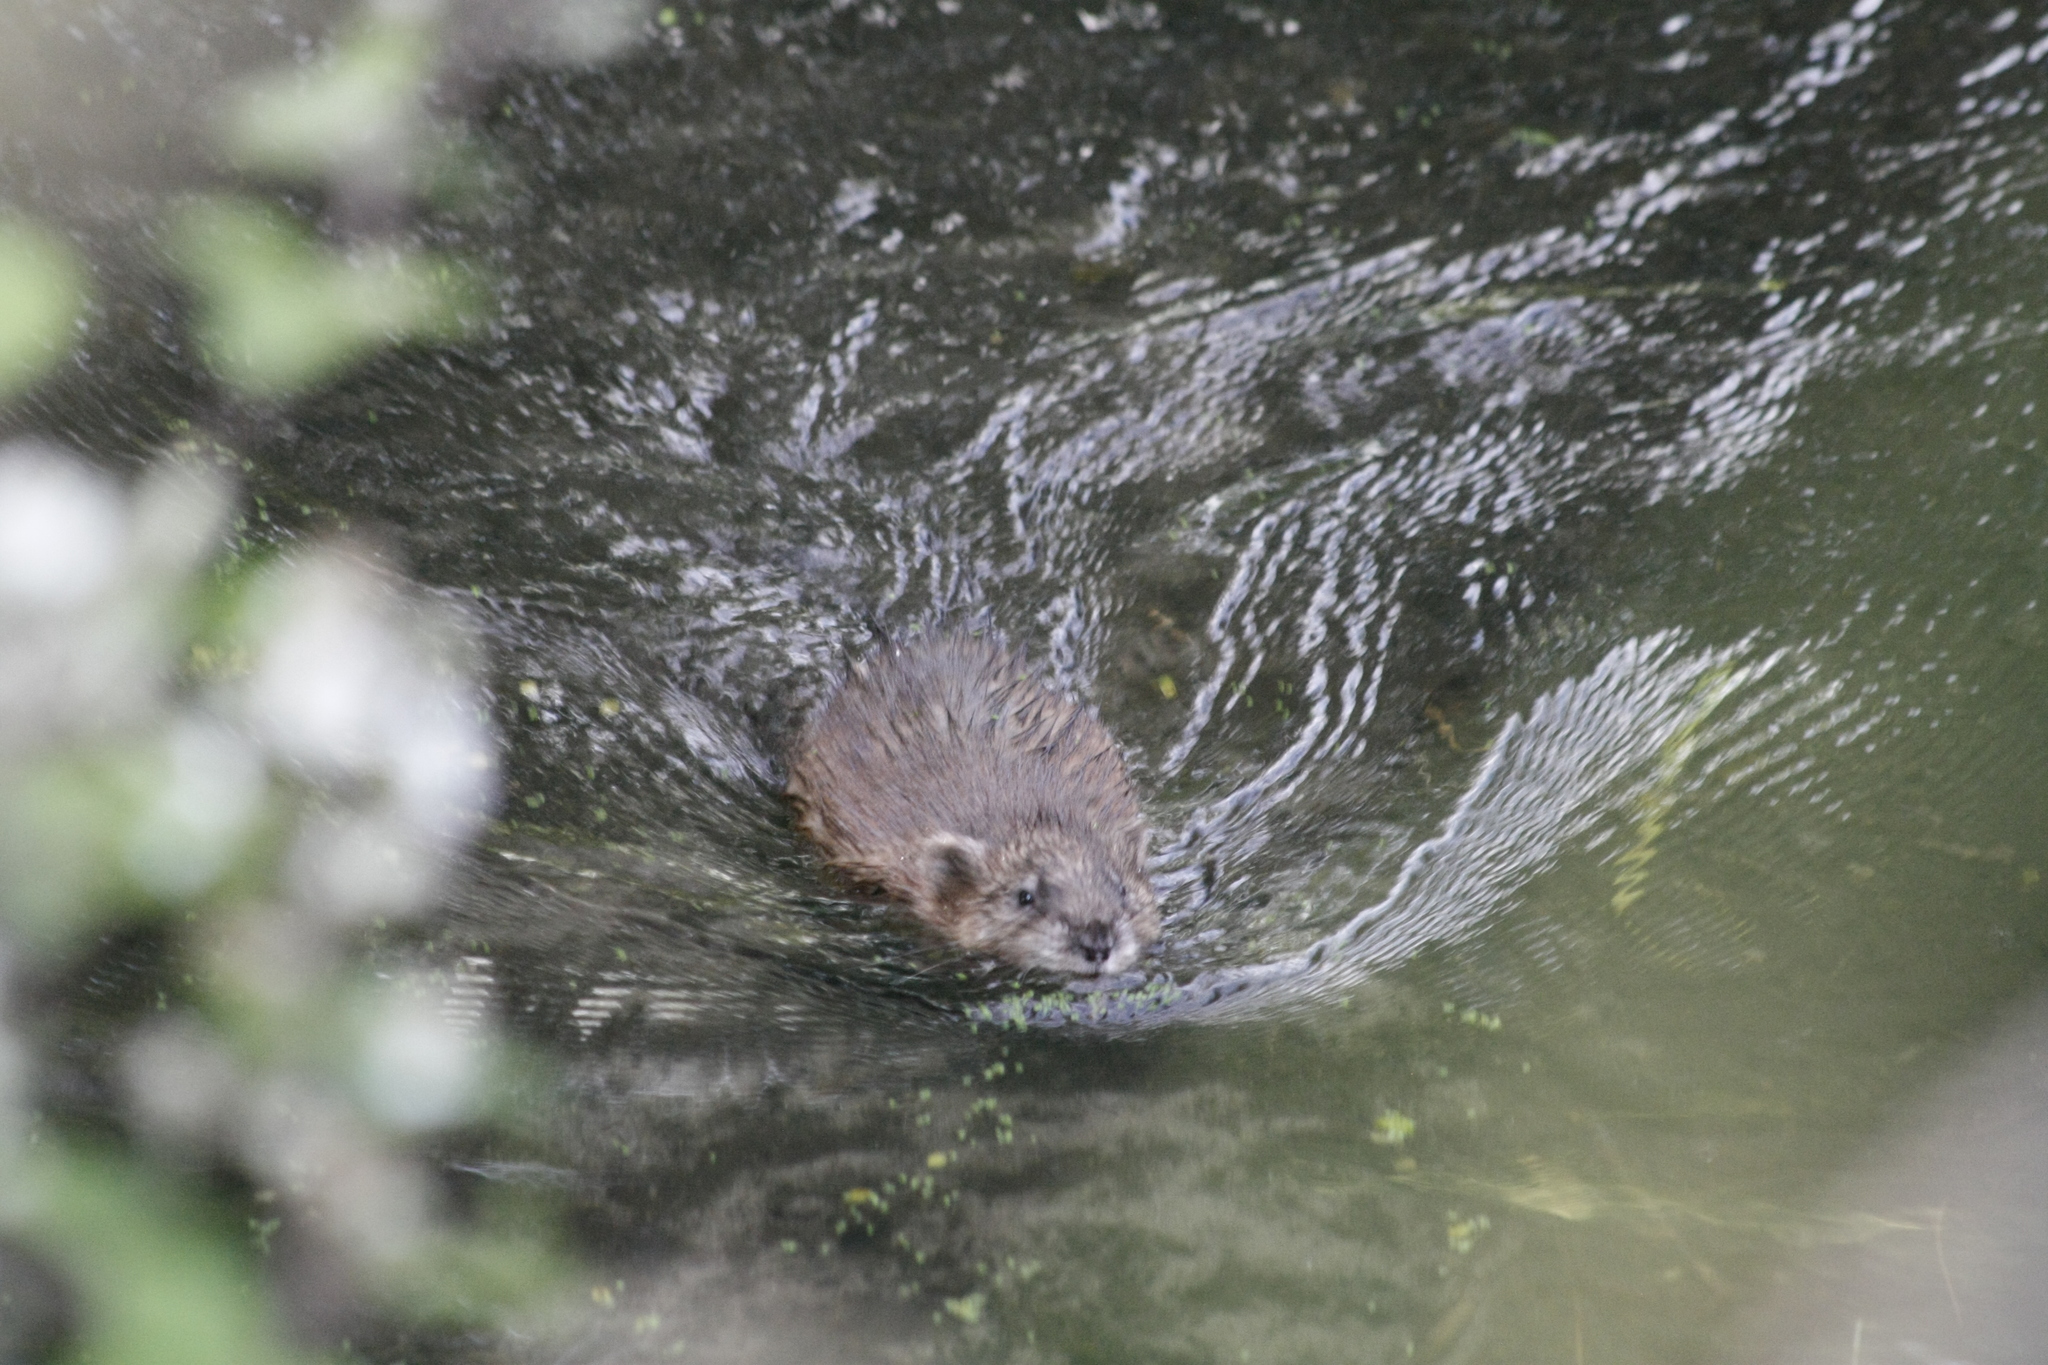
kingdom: Animalia
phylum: Chordata
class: Mammalia
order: Rodentia
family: Myocastoridae
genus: Myocastor
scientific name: Myocastor coypus
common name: Coypu
